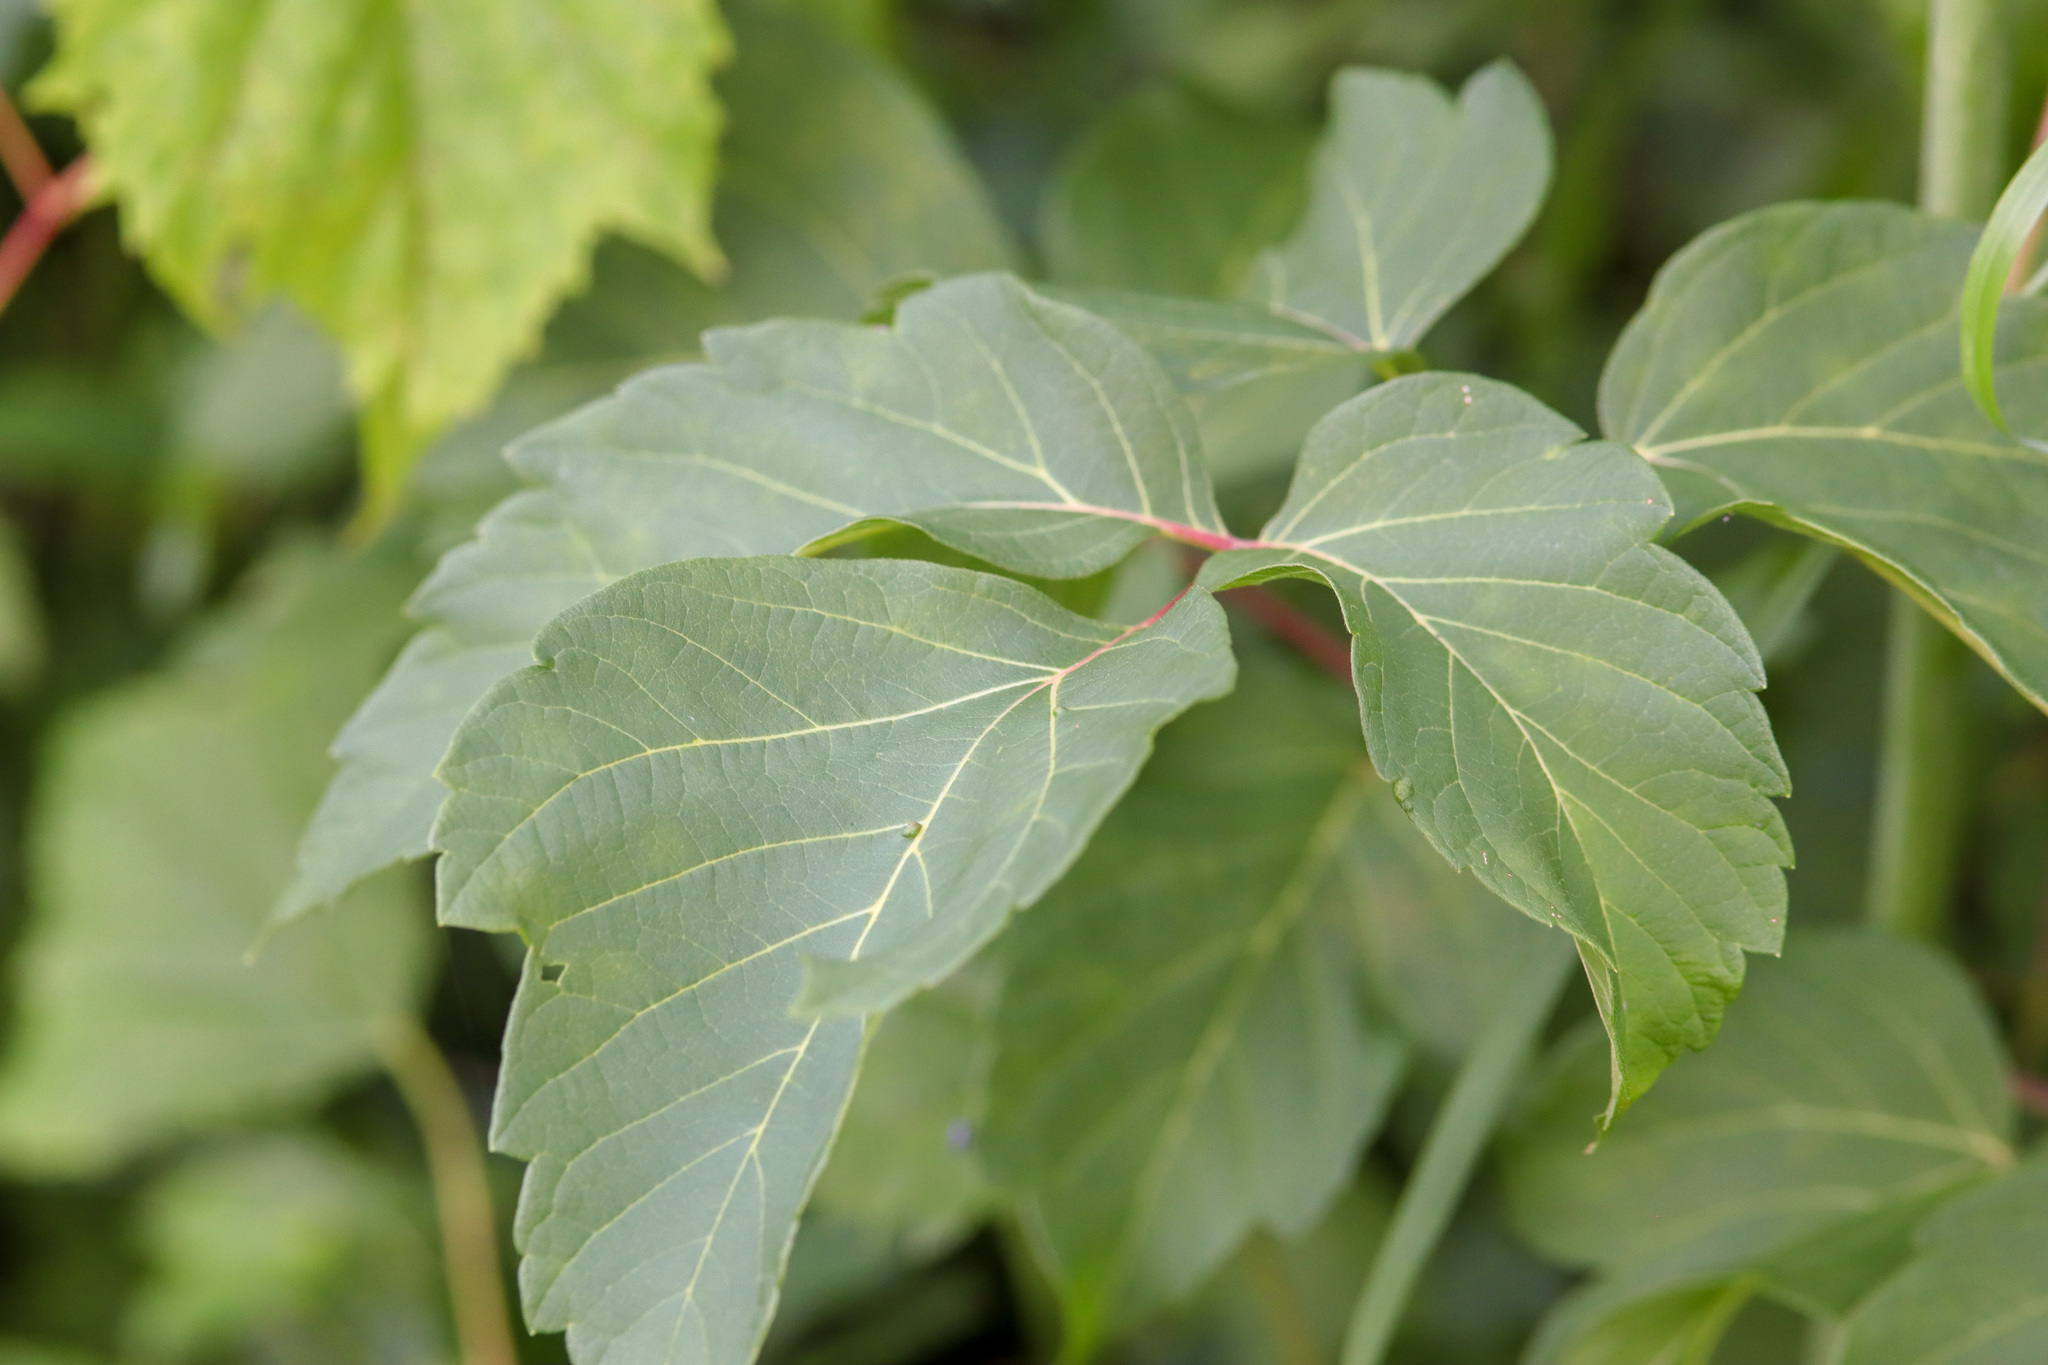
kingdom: Plantae
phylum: Tracheophyta
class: Magnoliopsida
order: Sapindales
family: Sapindaceae
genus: Acer
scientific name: Acer negundo
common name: Ashleaf maple
